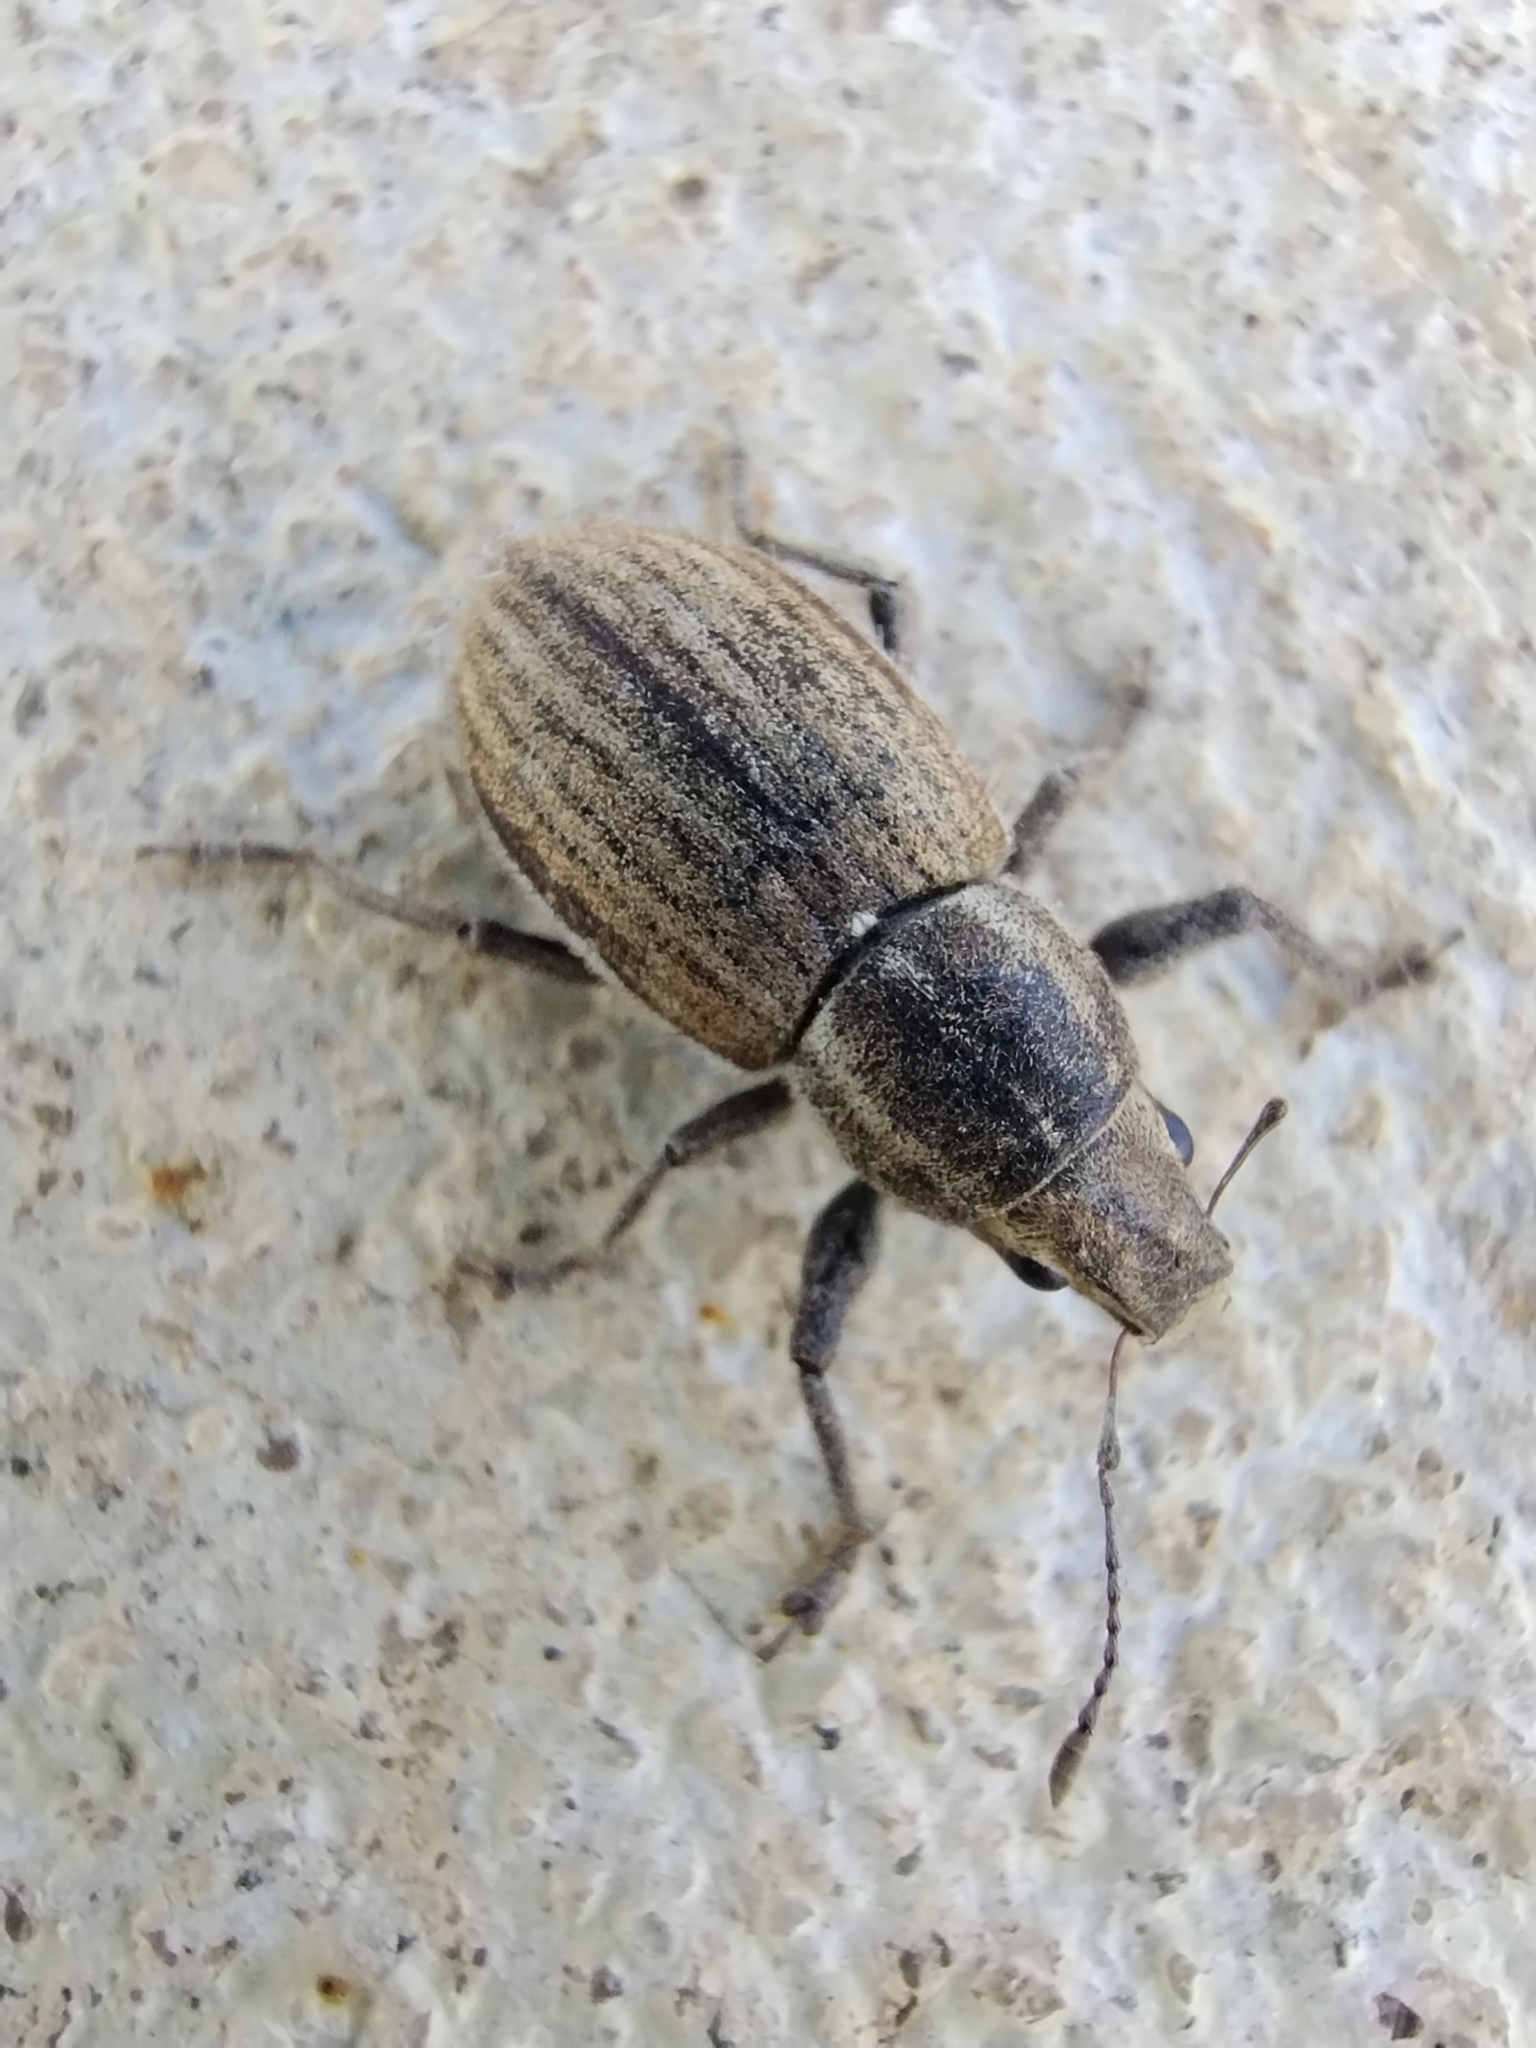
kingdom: Animalia
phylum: Arthropoda
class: Insecta
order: Coleoptera
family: Curculionidae
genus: Naupactus
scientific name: Naupactus leucoloma
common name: Whitefringed beetle
